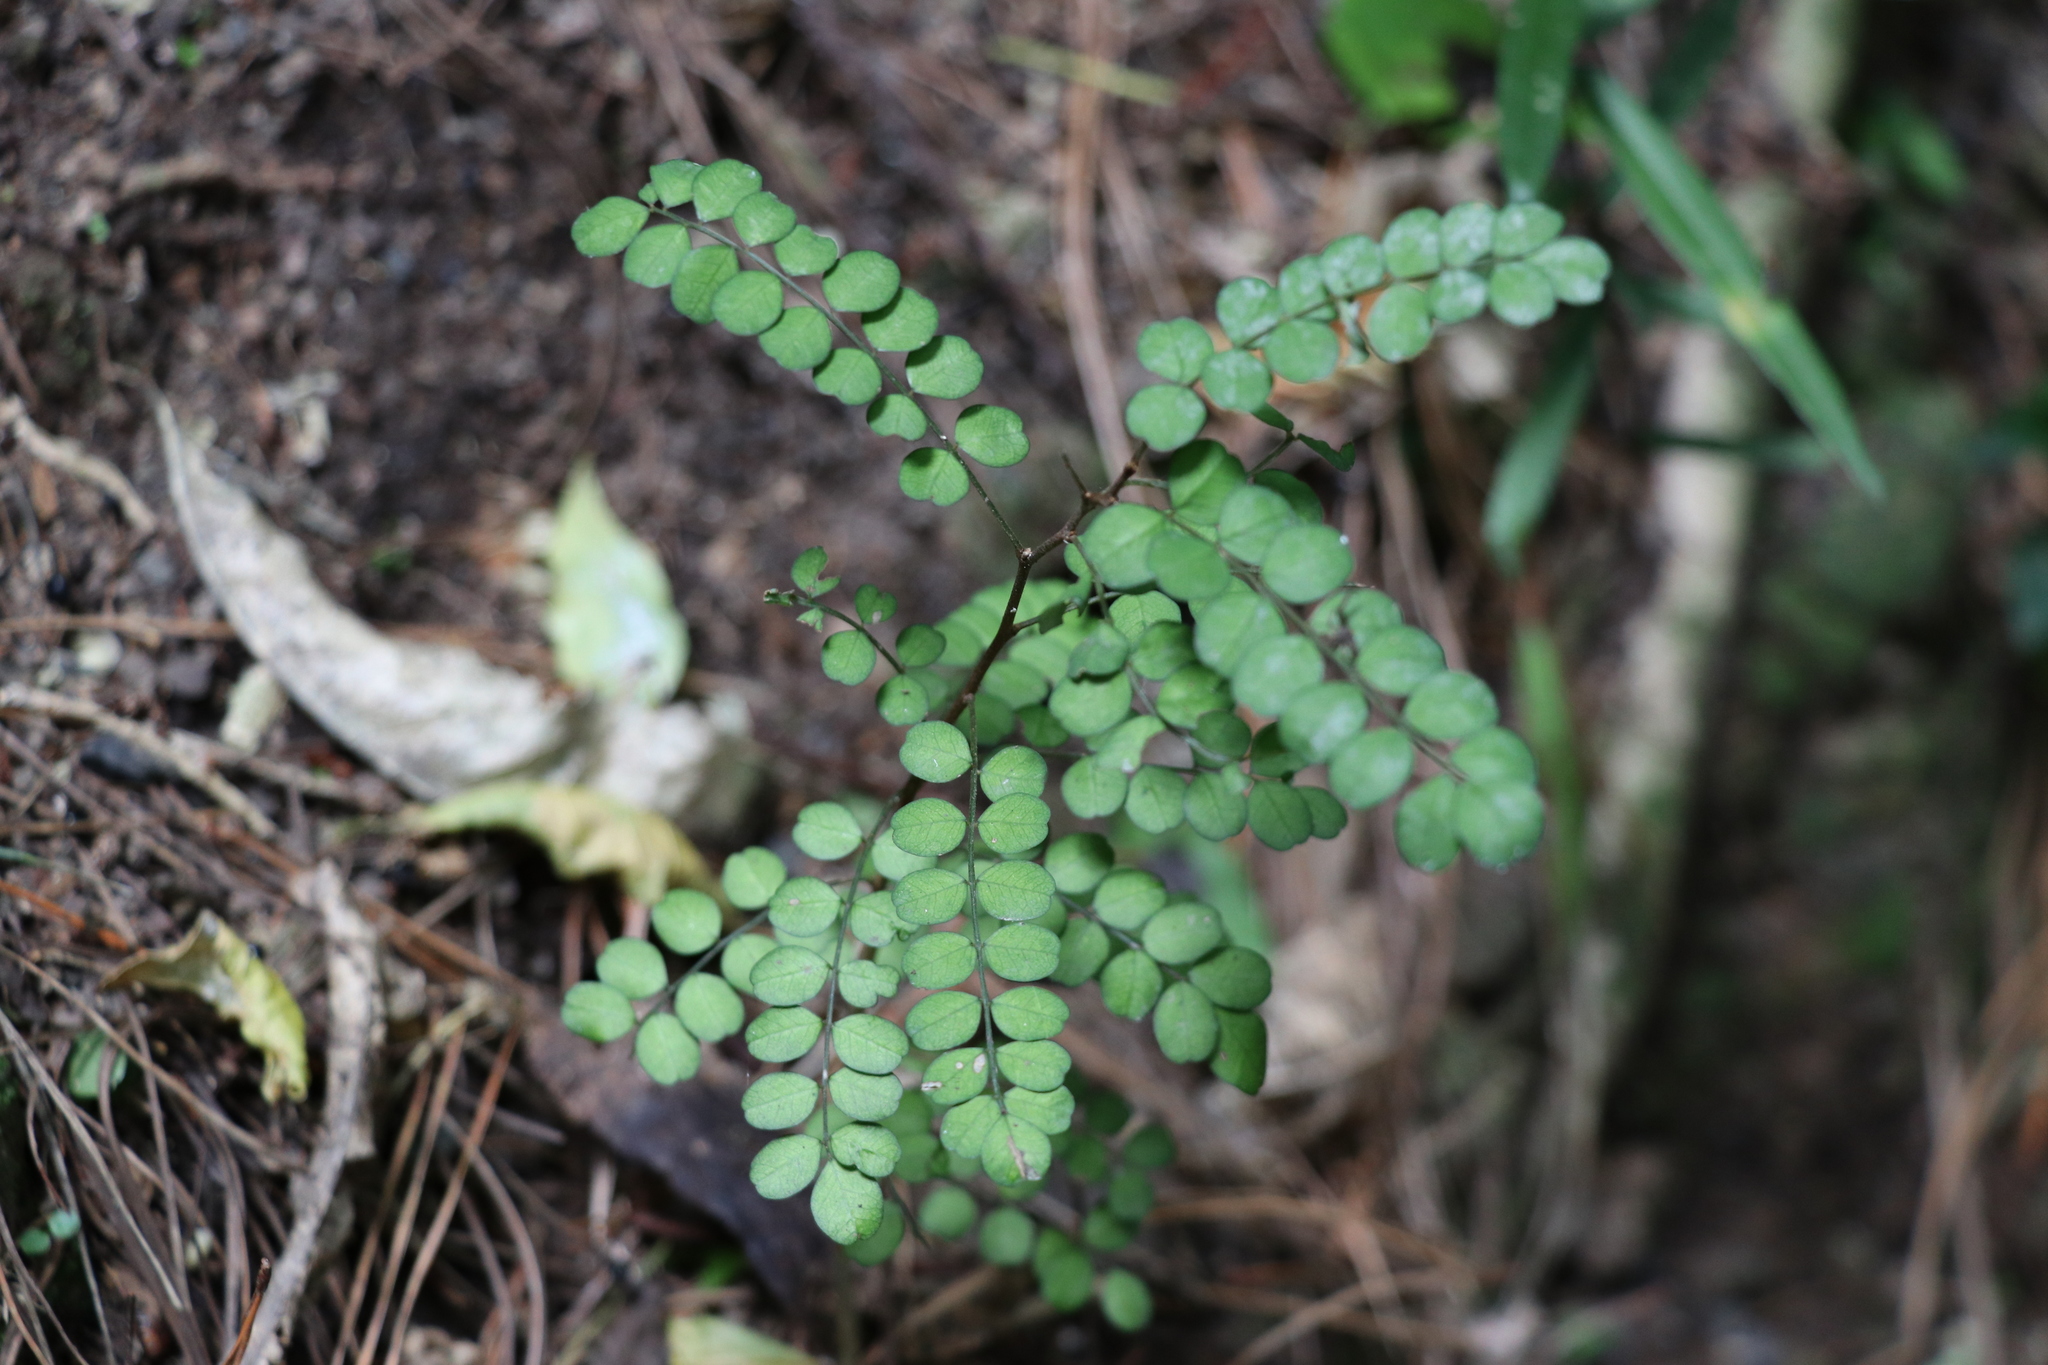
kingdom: Plantae
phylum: Tracheophyta
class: Magnoliopsida
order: Fabales
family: Fabaceae
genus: Sophora
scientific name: Sophora microphylla
